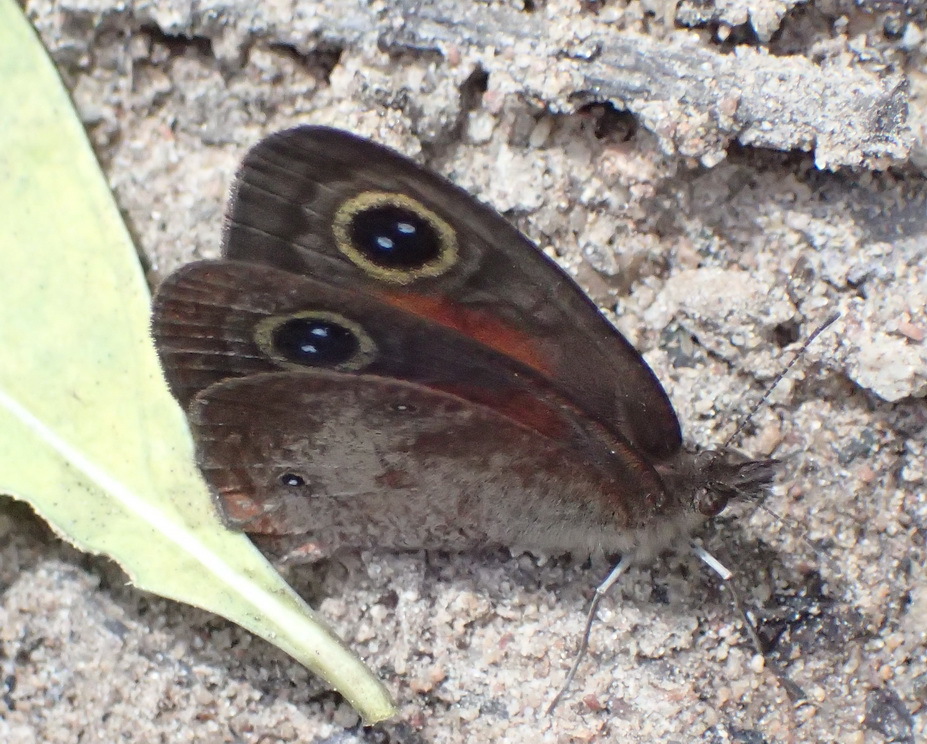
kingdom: Animalia
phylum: Arthropoda
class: Insecta
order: Lepidoptera
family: Nymphalidae
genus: Cassionympha
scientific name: Cassionympha cassius
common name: Rainforest brown
